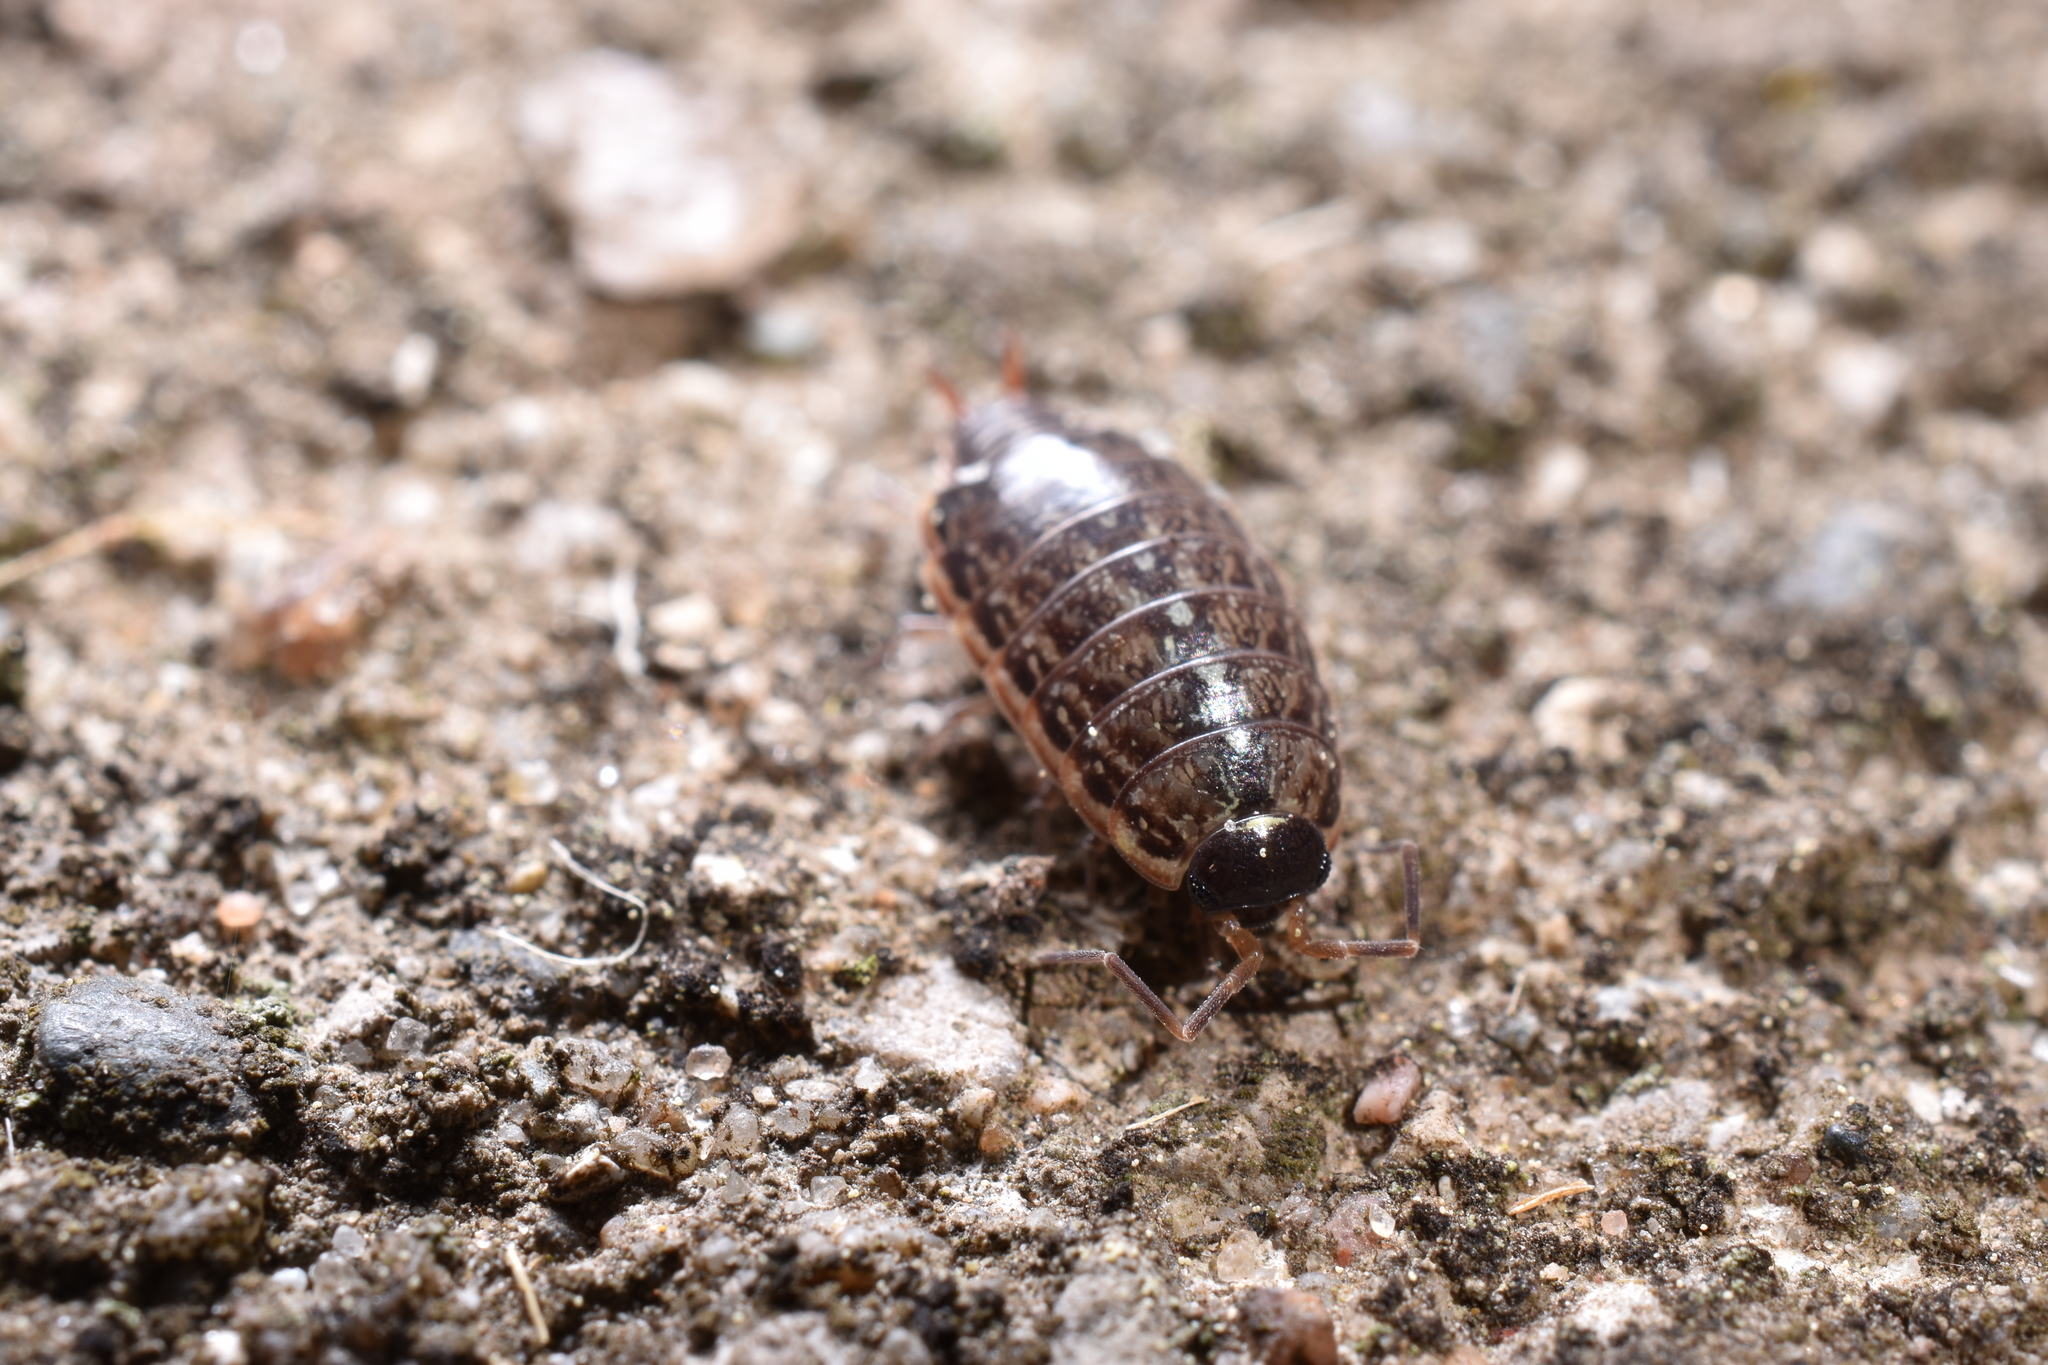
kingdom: Animalia
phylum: Arthropoda
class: Malacostraca
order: Isopoda
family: Philosciidae
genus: Philoscia
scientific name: Philoscia muscorum
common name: Common striped woodlouse
